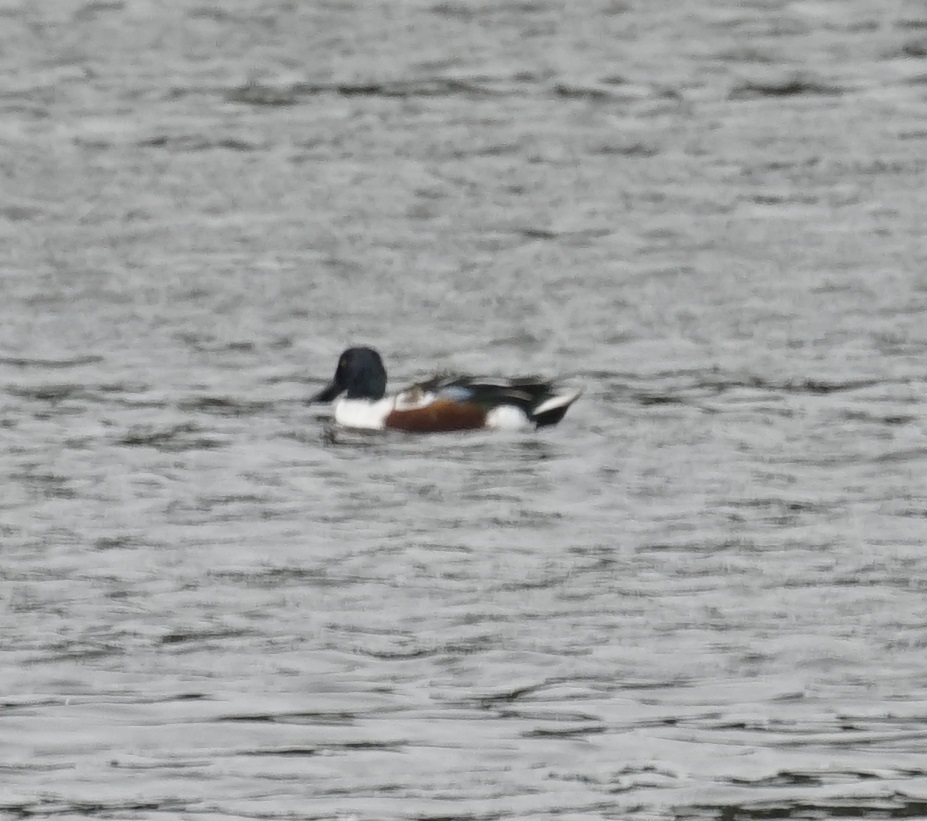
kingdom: Animalia
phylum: Chordata
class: Aves
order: Anseriformes
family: Anatidae
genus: Spatula
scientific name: Spatula clypeata
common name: Northern shoveler
